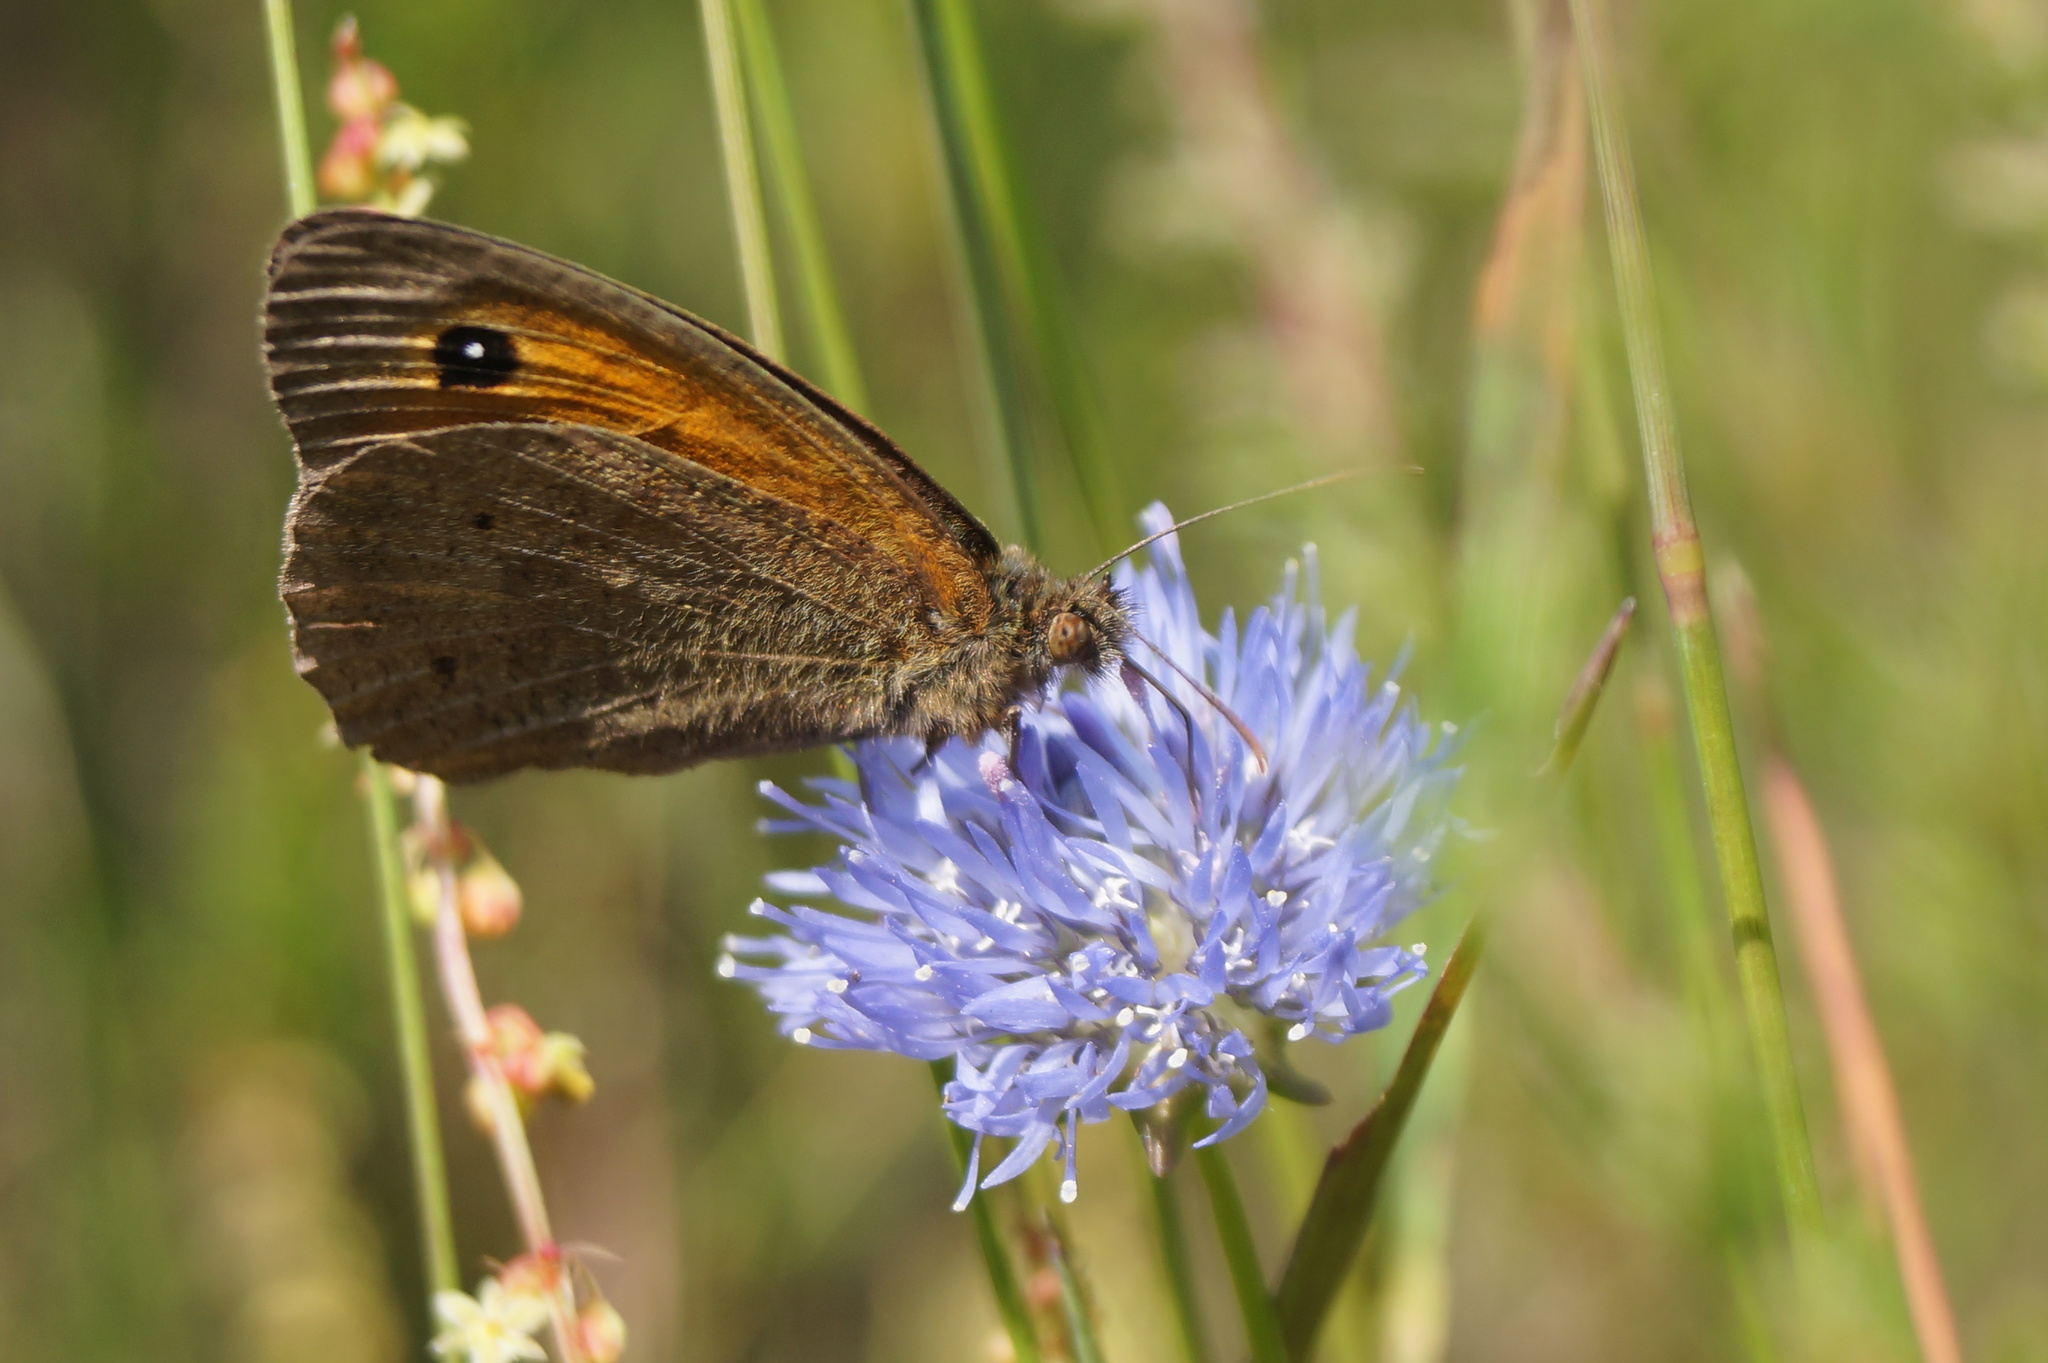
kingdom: Animalia
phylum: Arthropoda
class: Insecta
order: Lepidoptera
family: Nymphalidae
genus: Maniola
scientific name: Maniola jurtina
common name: Meadow brown
